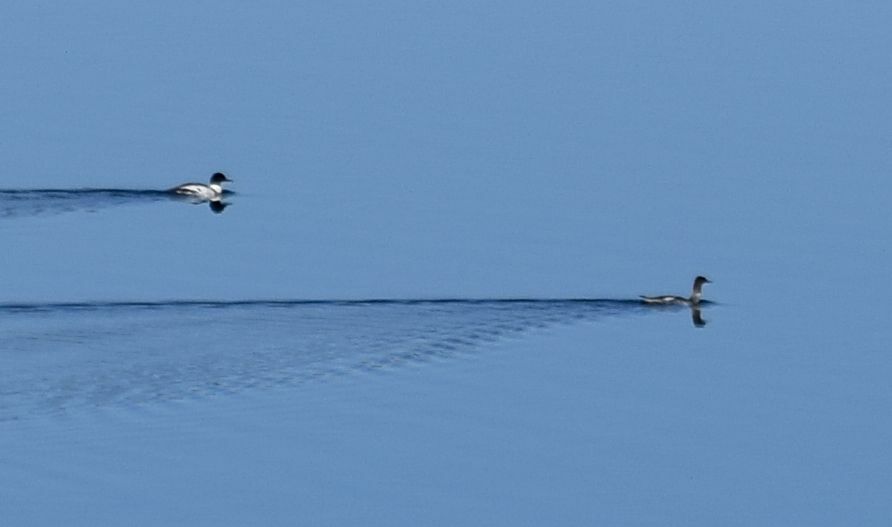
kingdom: Animalia
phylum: Chordata
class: Aves
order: Anseriformes
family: Anatidae
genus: Mergus
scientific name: Mergus merganser
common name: Common merganser
